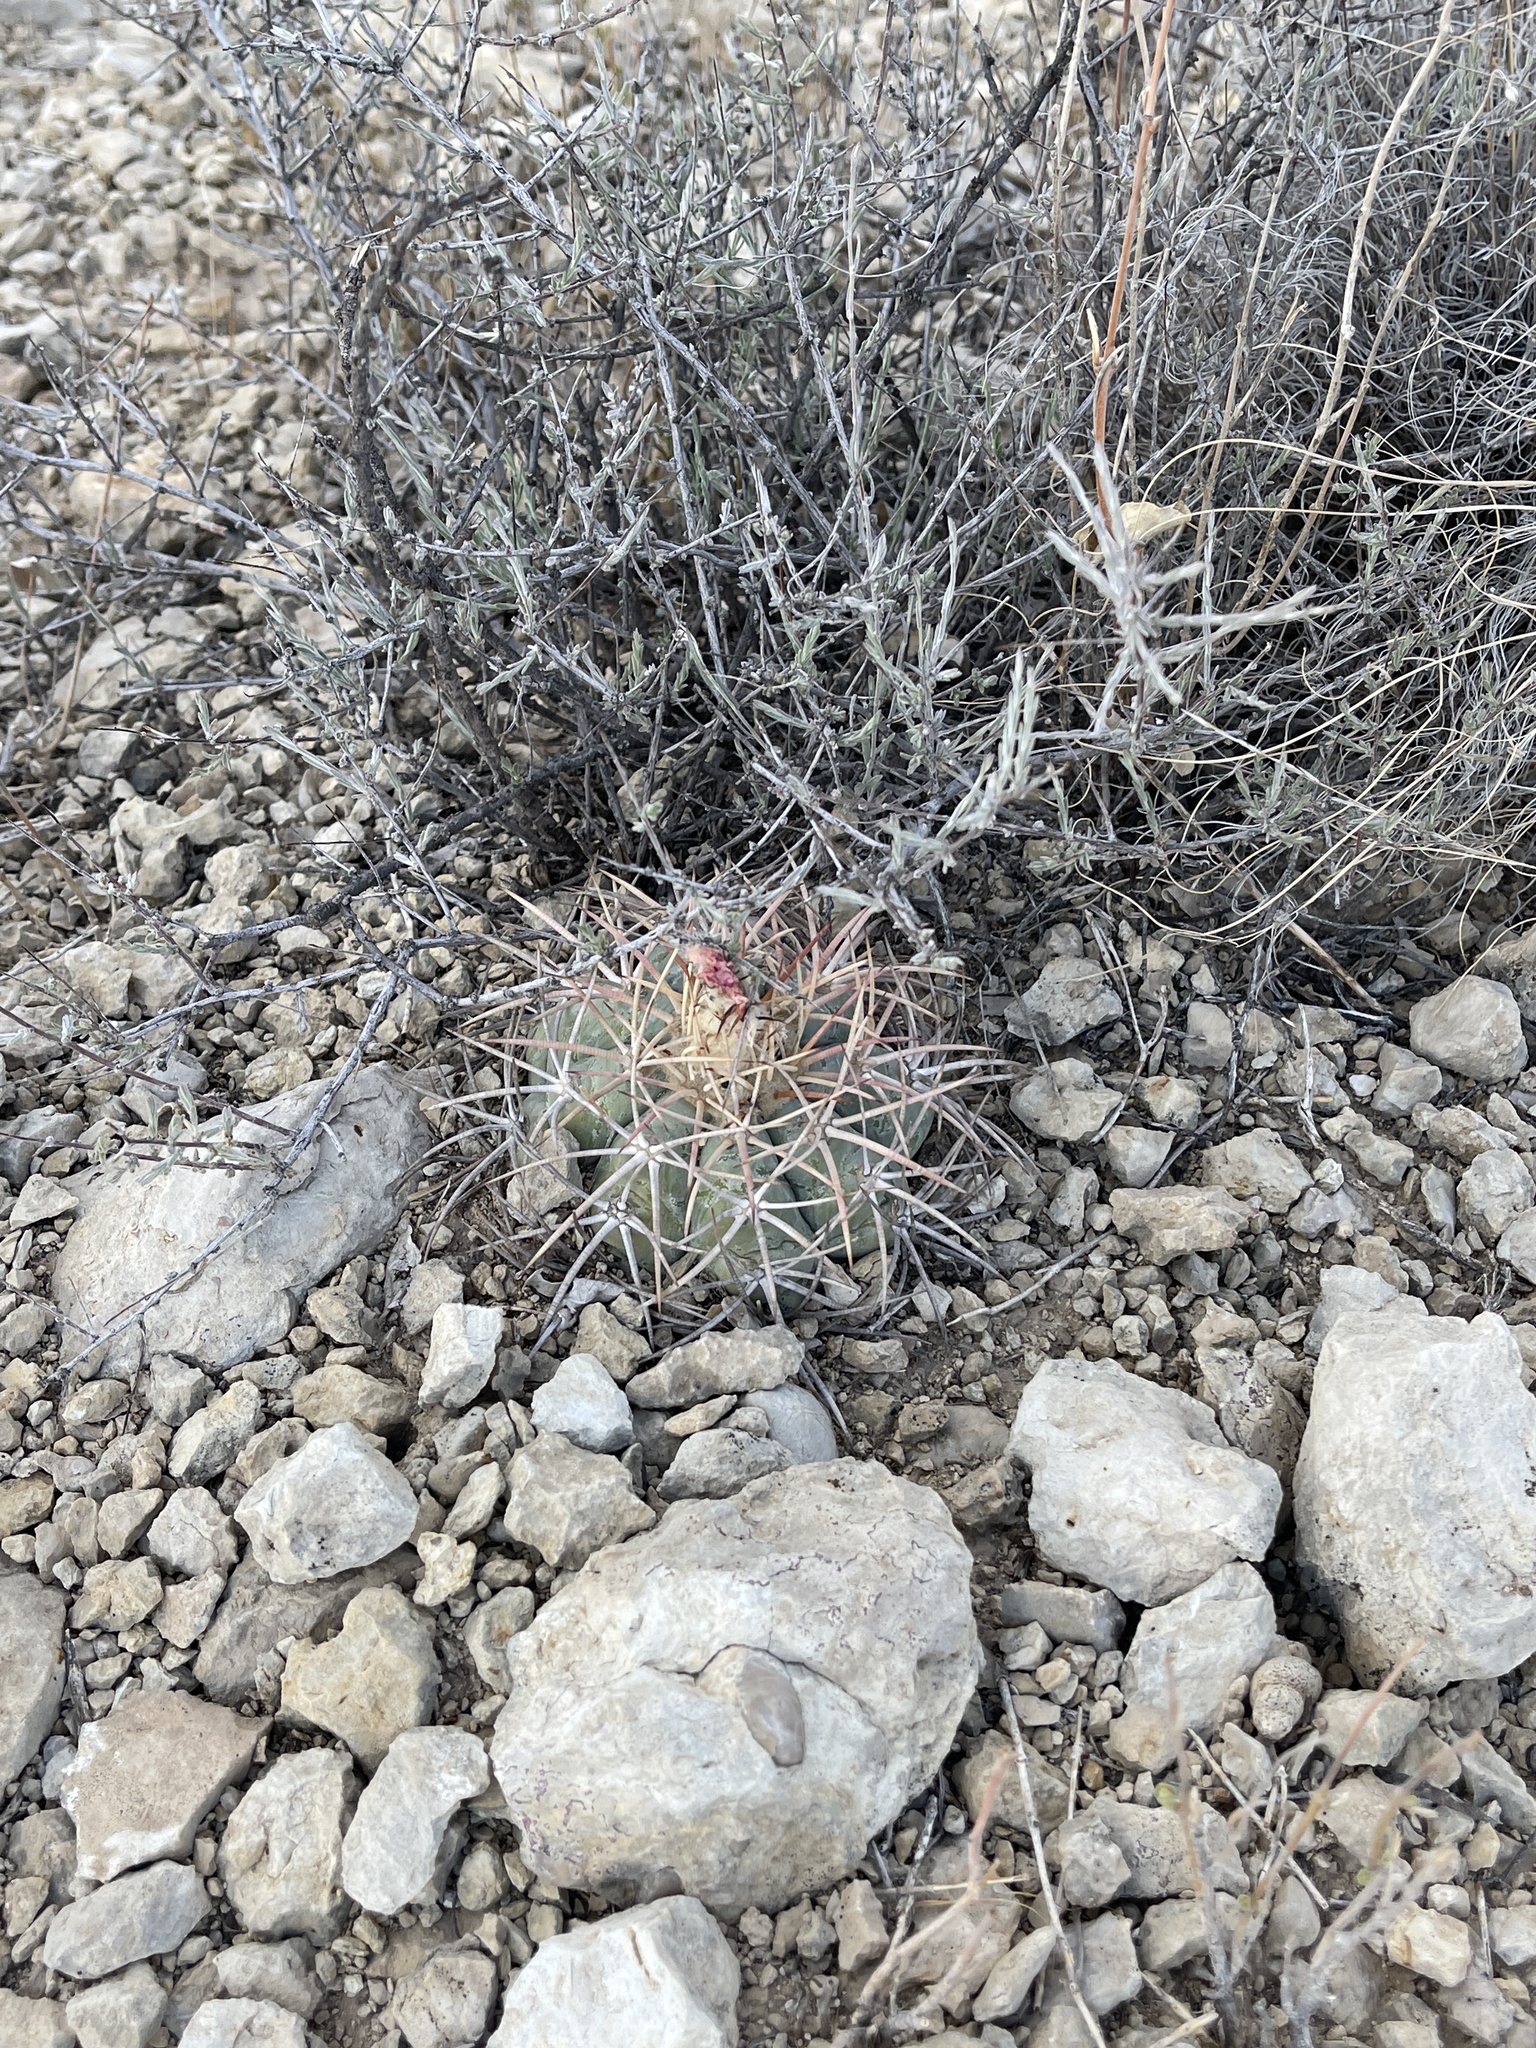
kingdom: Plantae
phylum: Tracheophyta
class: Magnoliopsida
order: Caryophyllales
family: Cactaceae
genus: Echinocactus
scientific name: Echinocactus horizonthalonius
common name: Devilshead
